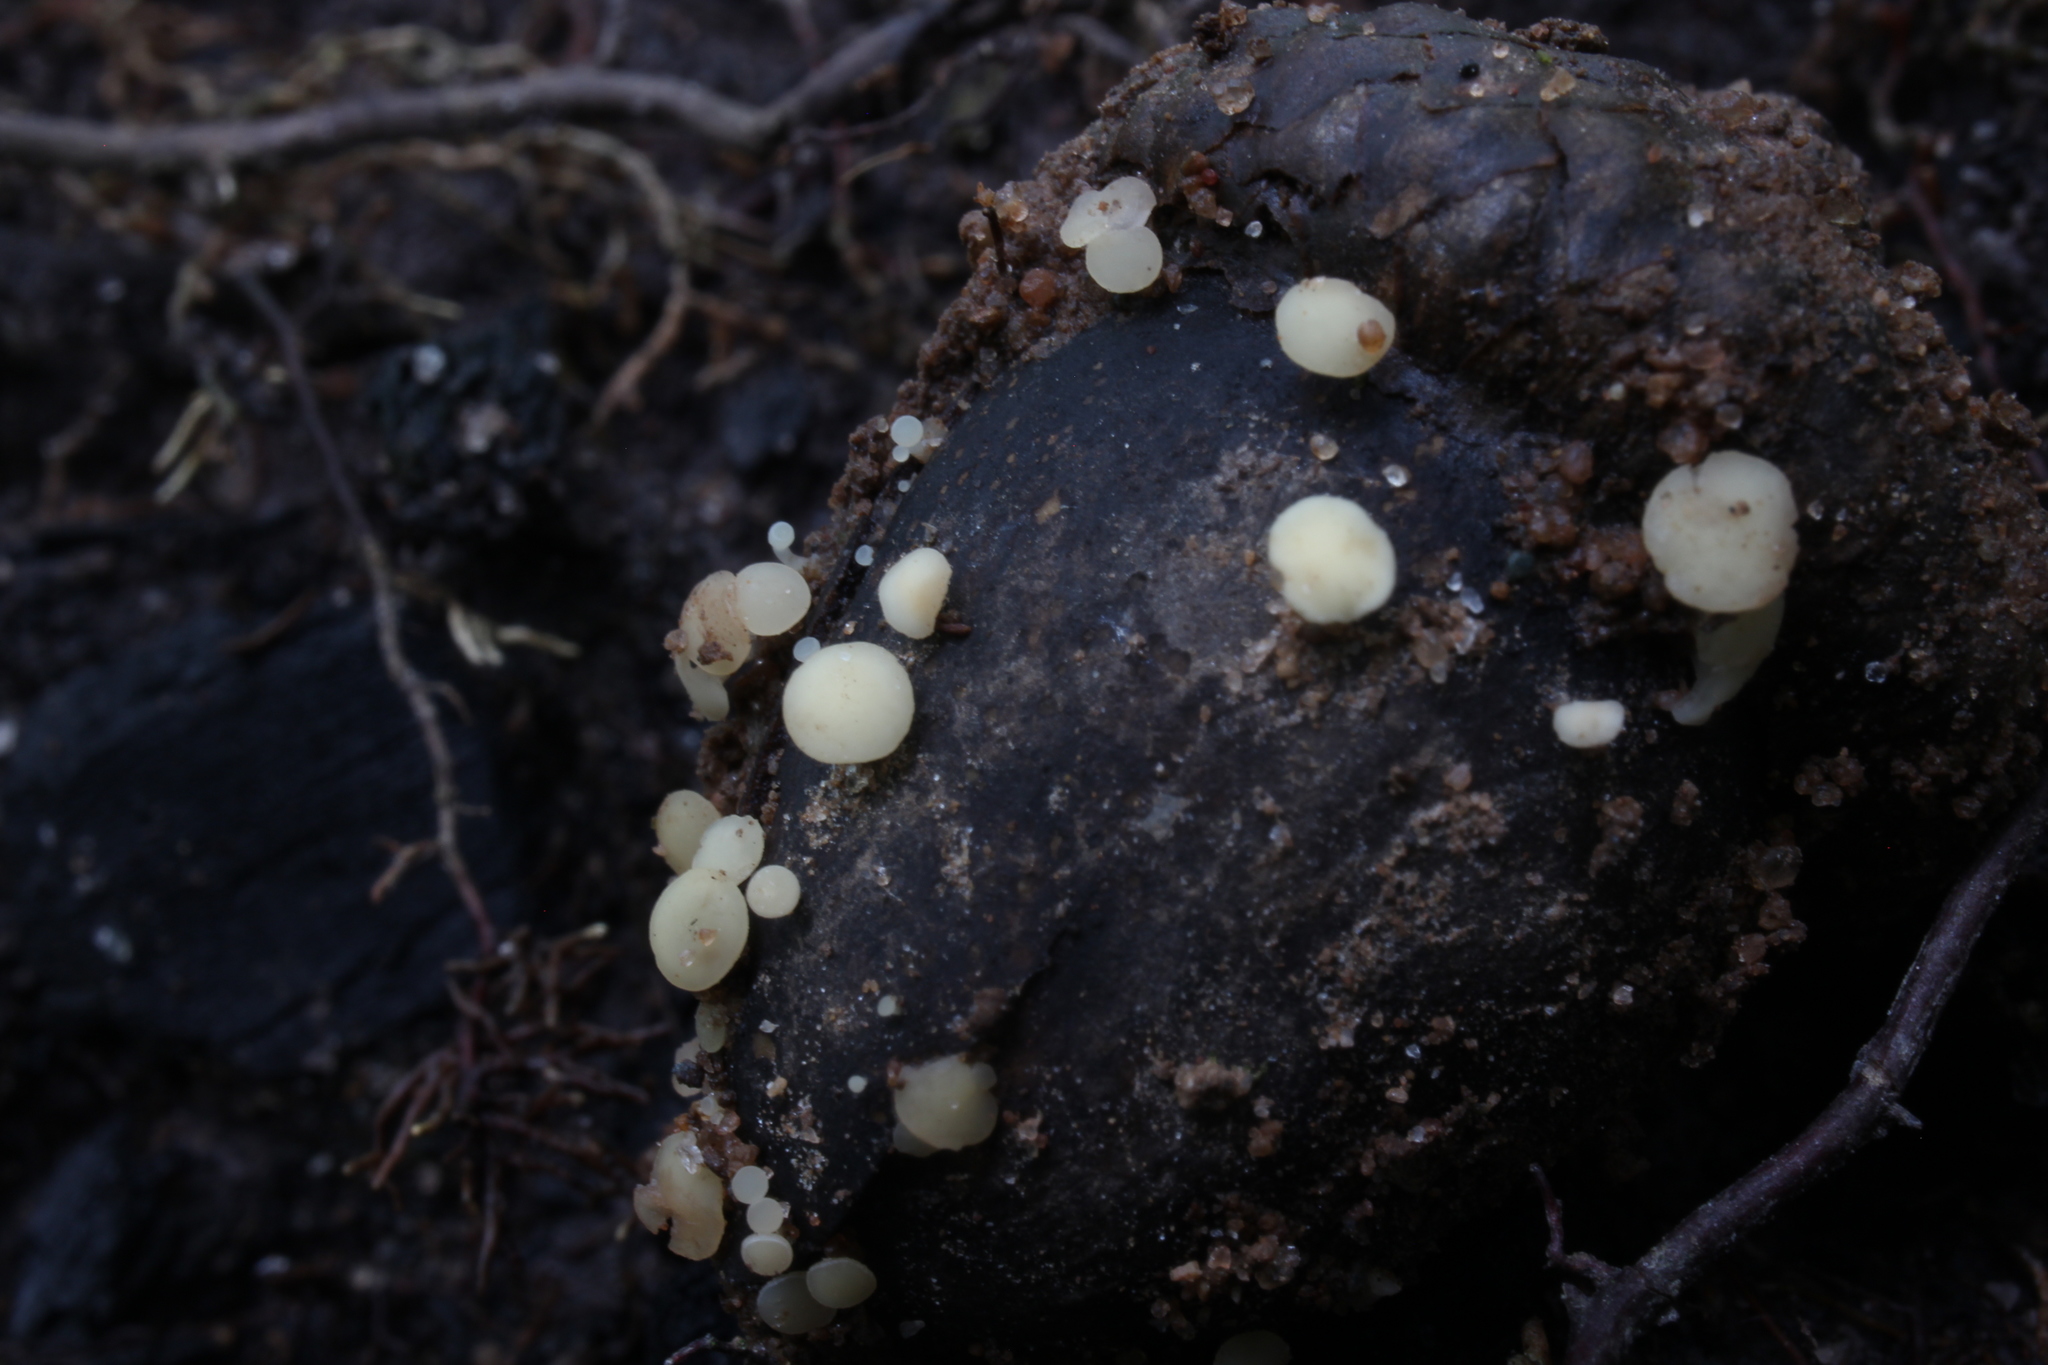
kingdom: Fungi
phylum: Ascomycota
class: Leotiomycetes
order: Helotiales
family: Helotiaceae
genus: Hymenoscyphus
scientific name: Hymenoscyphus fructigenus
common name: Nut disco
